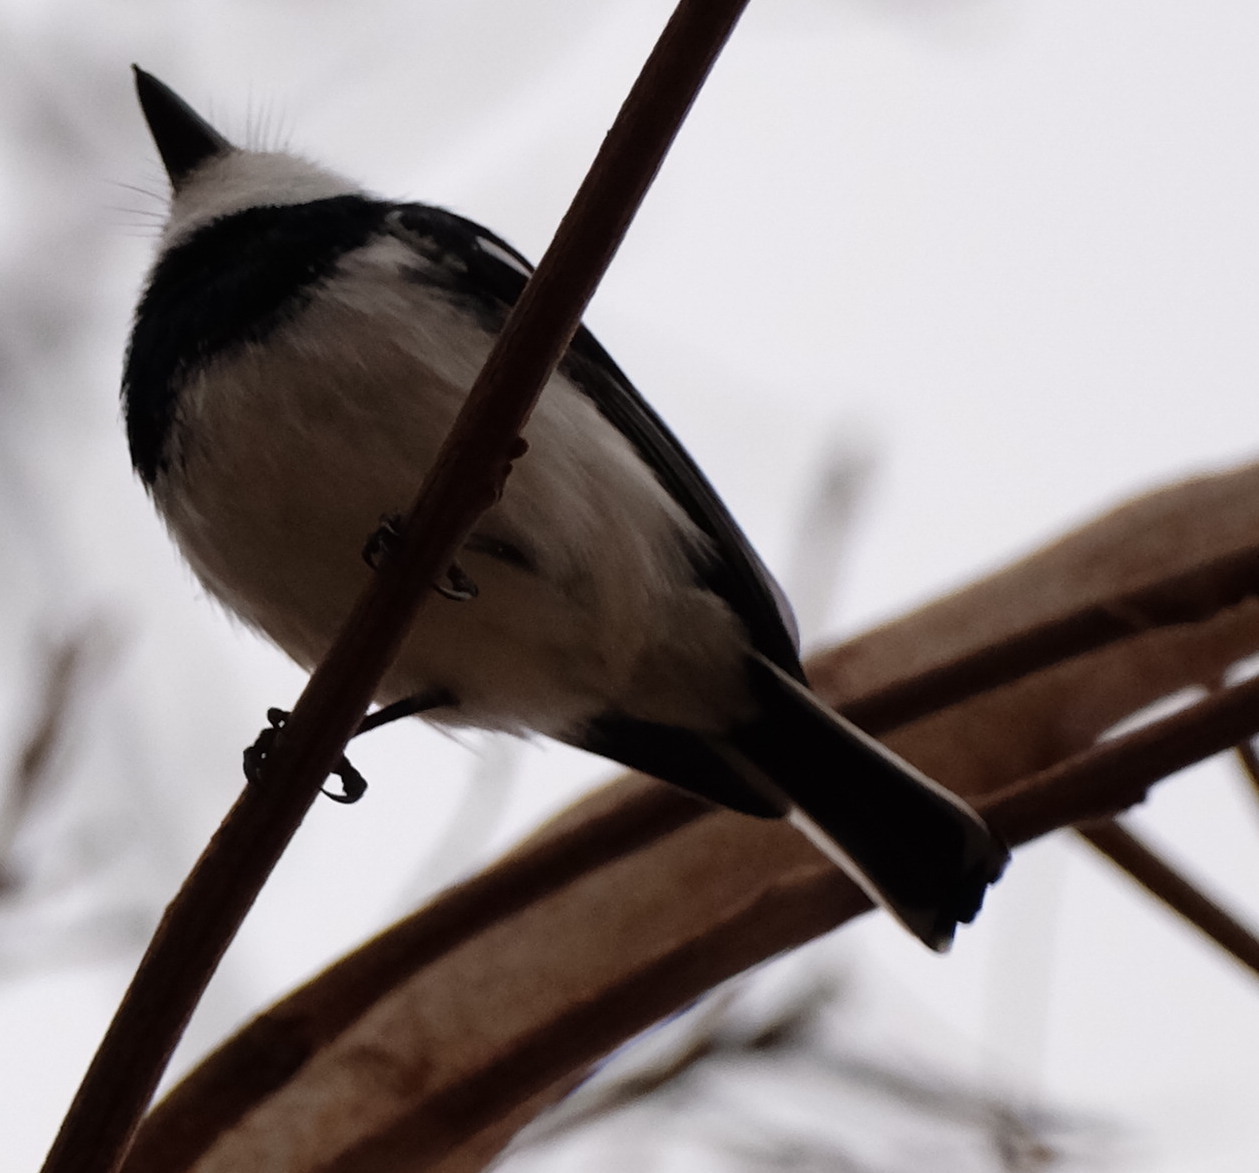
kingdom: Animalia
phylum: Chordata
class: Aves
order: Passeriformes
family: Platysteiridae
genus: Batis
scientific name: Batis molitor
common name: Chinspot batis
